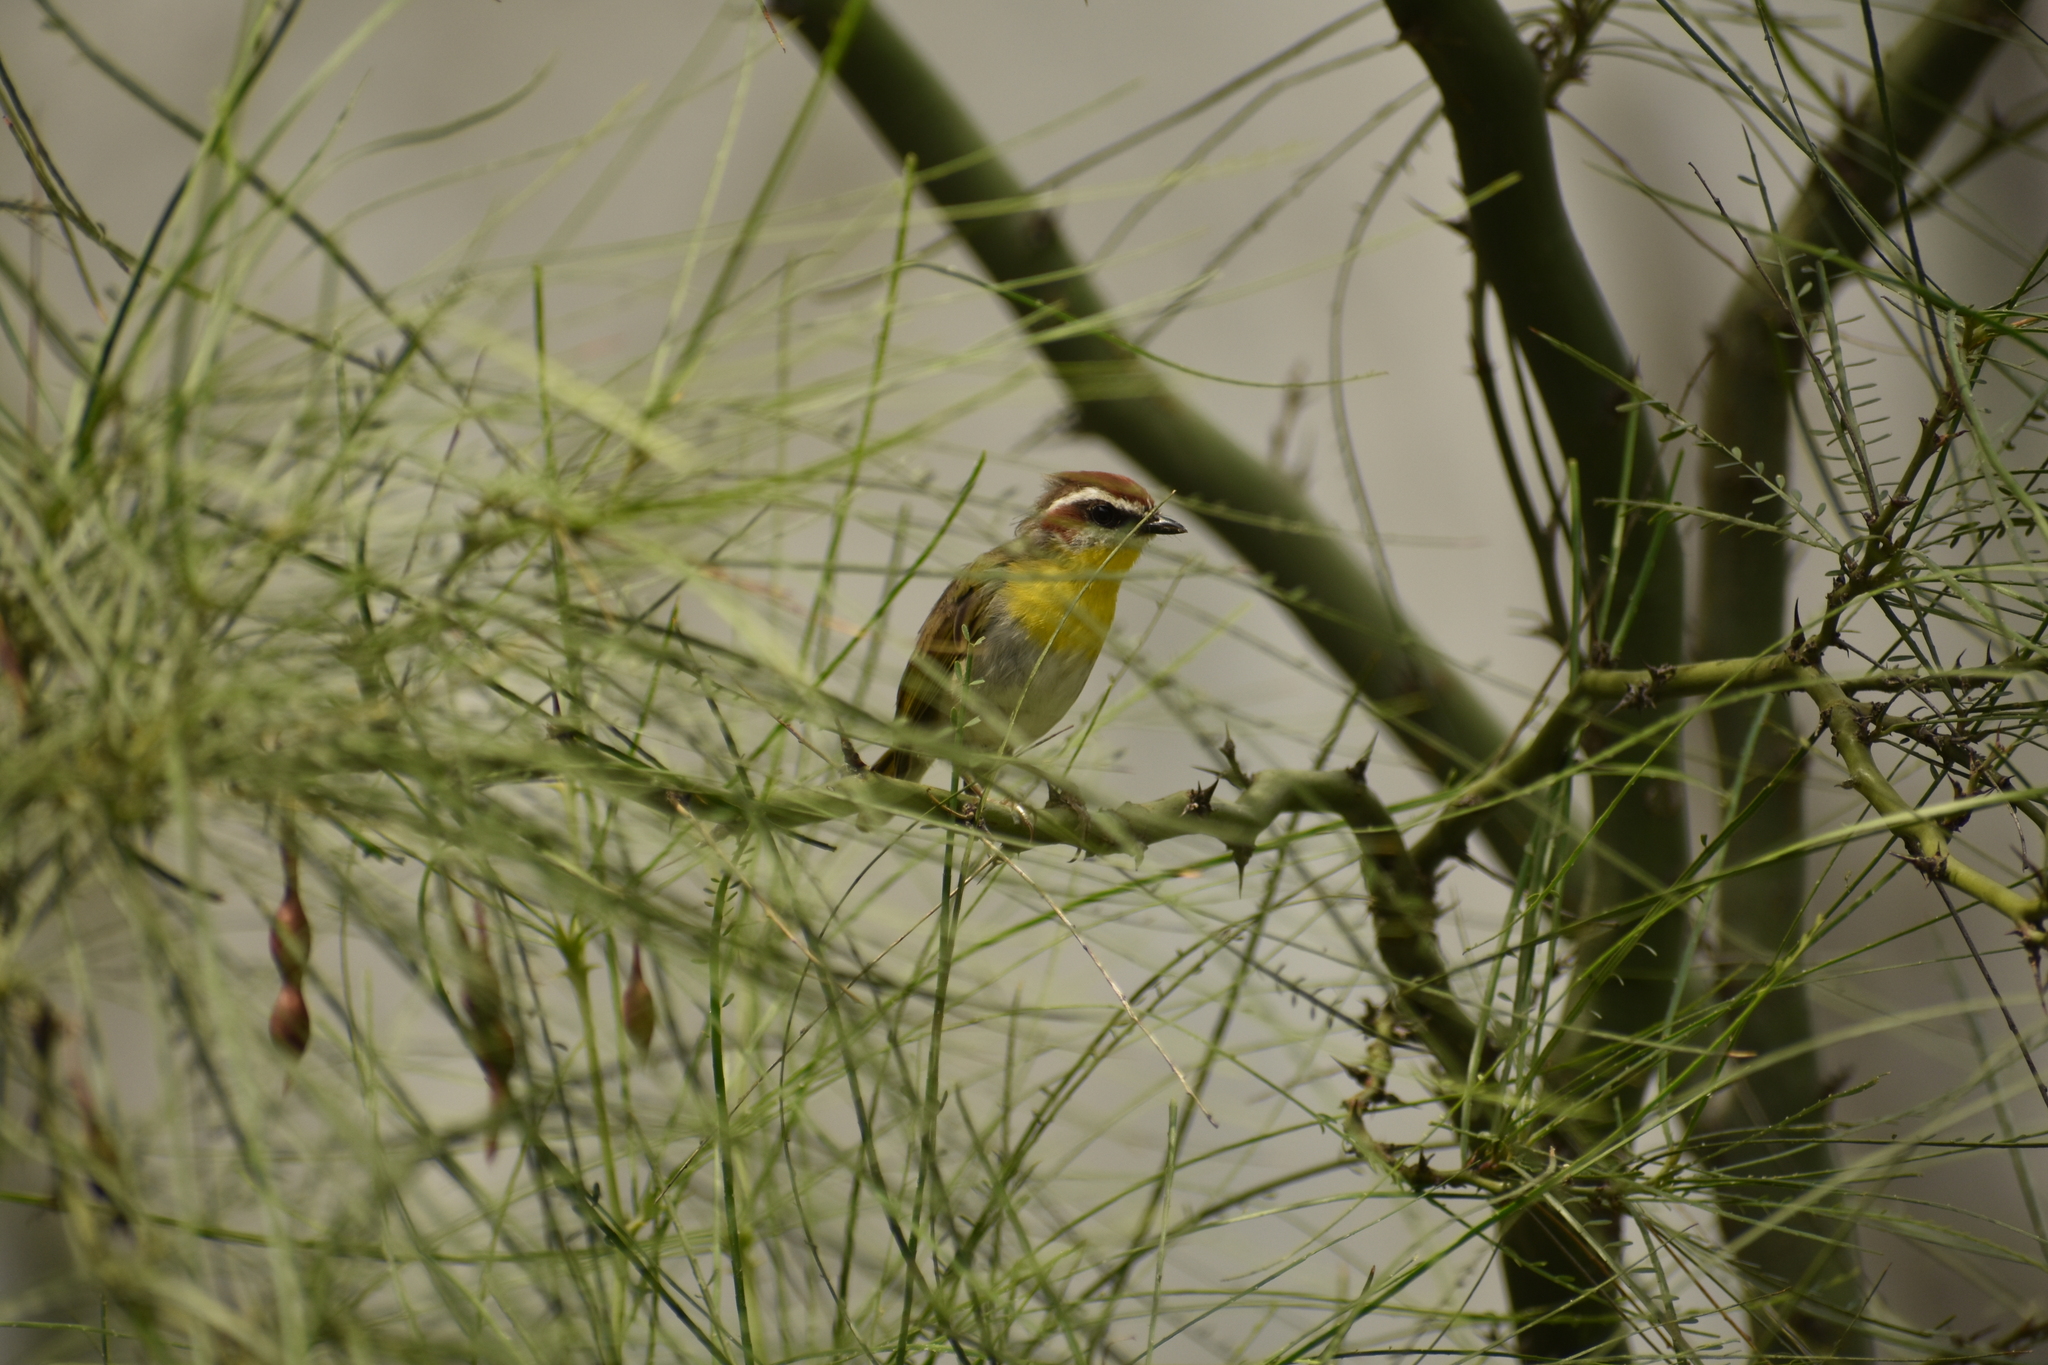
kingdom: Animalia
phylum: Chordata
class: Aves
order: Passeriformes
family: Parulidae
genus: Basileuterus
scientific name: Basileuterus rufifrons
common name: Rufous-capped warbler
